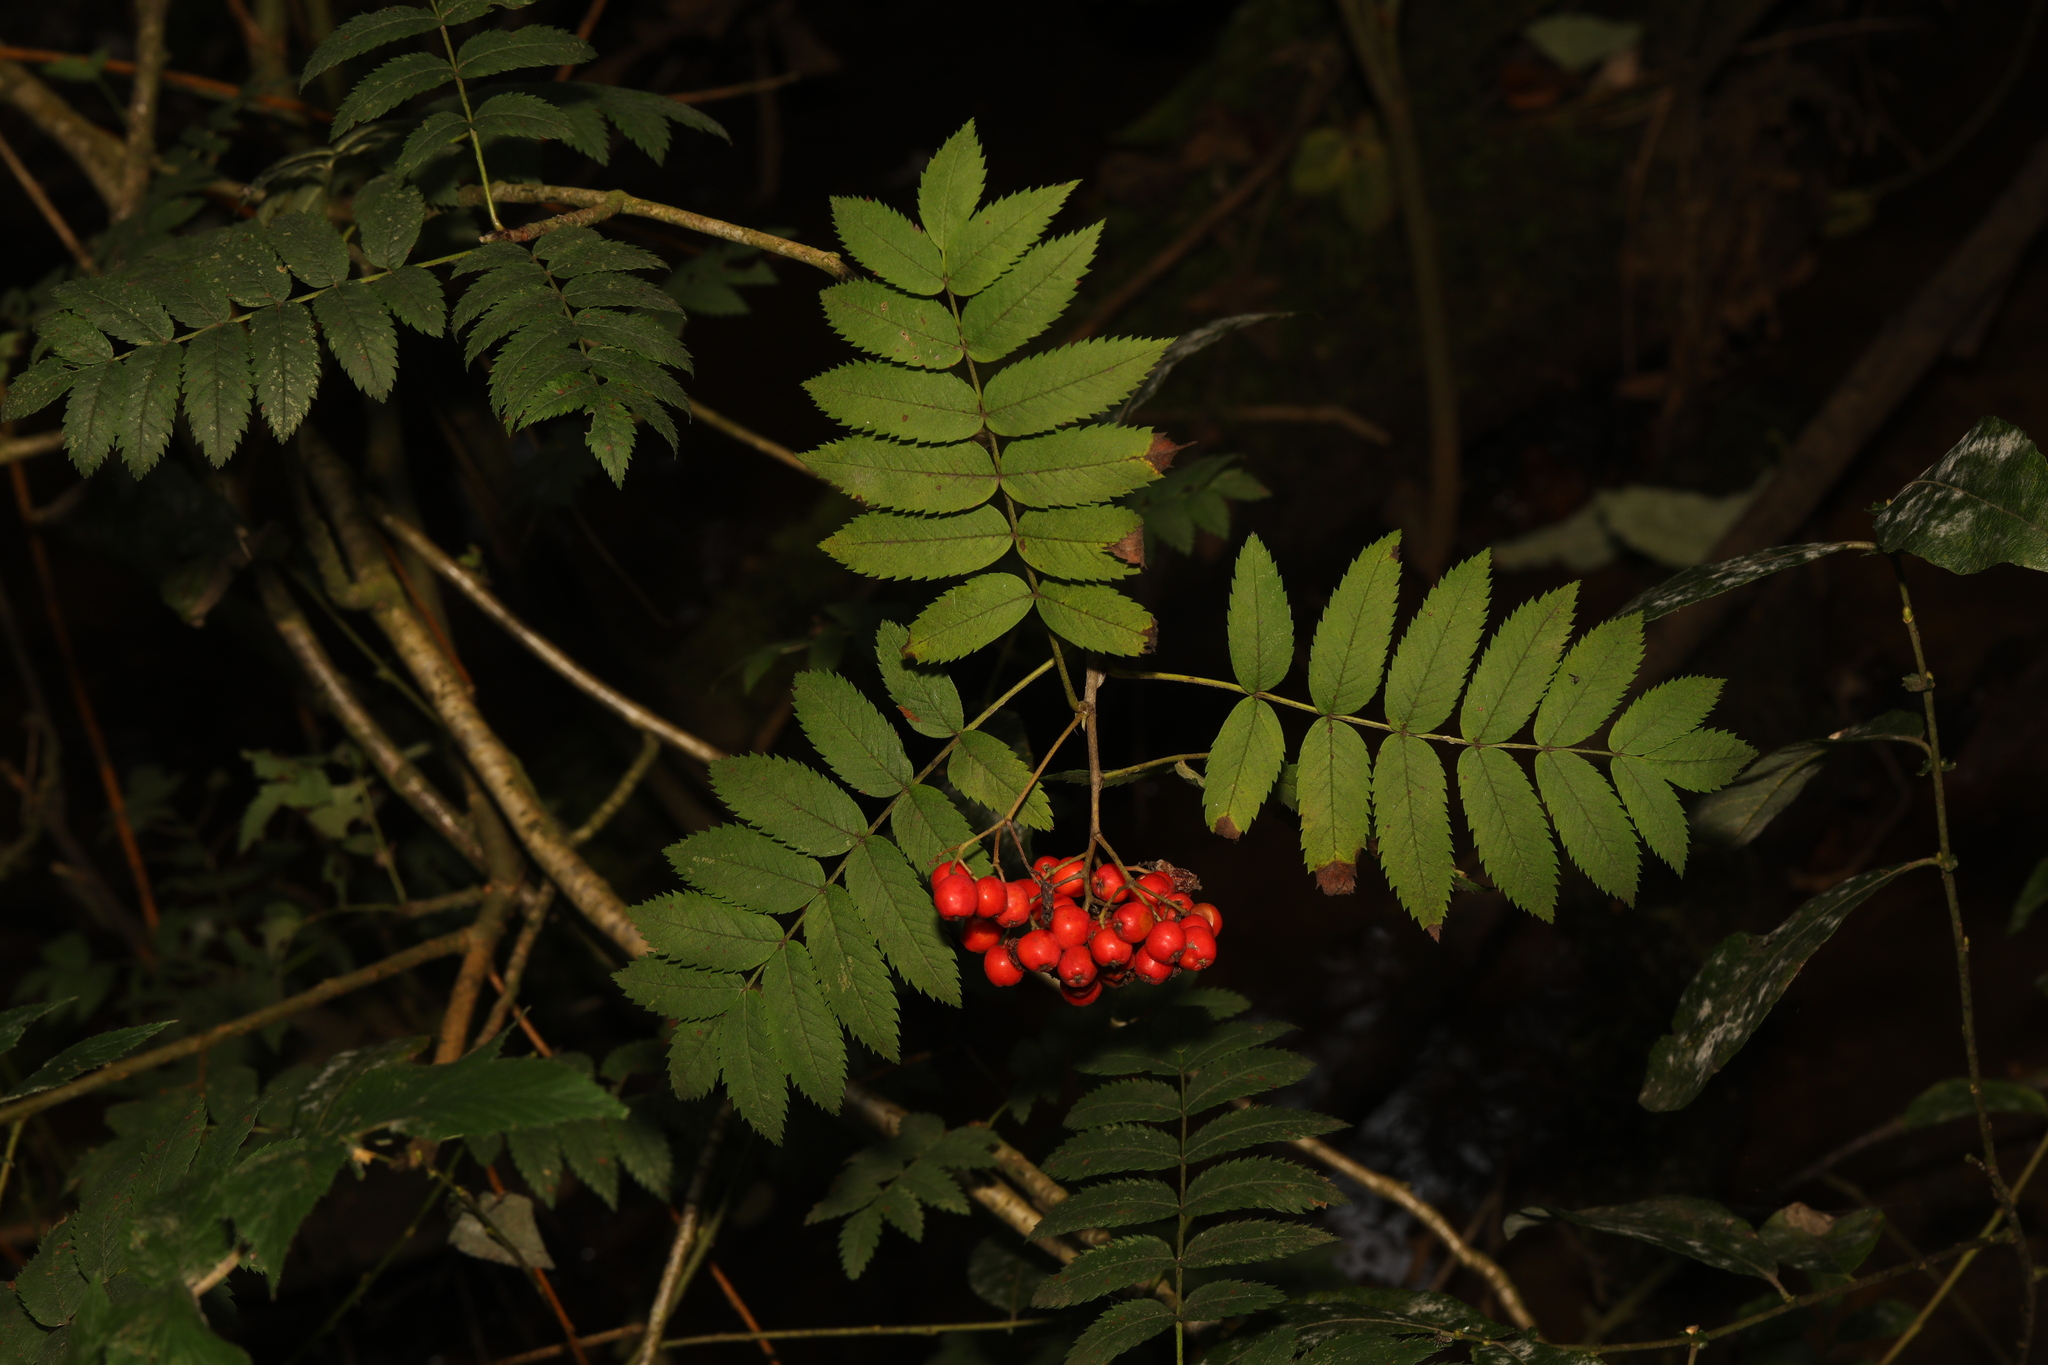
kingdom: Plantae
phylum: Tracheophyta
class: Magnoliopsida
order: Rosales
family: Rosaceae
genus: Sorbus
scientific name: Sorbus aucuparia
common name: Rowan
